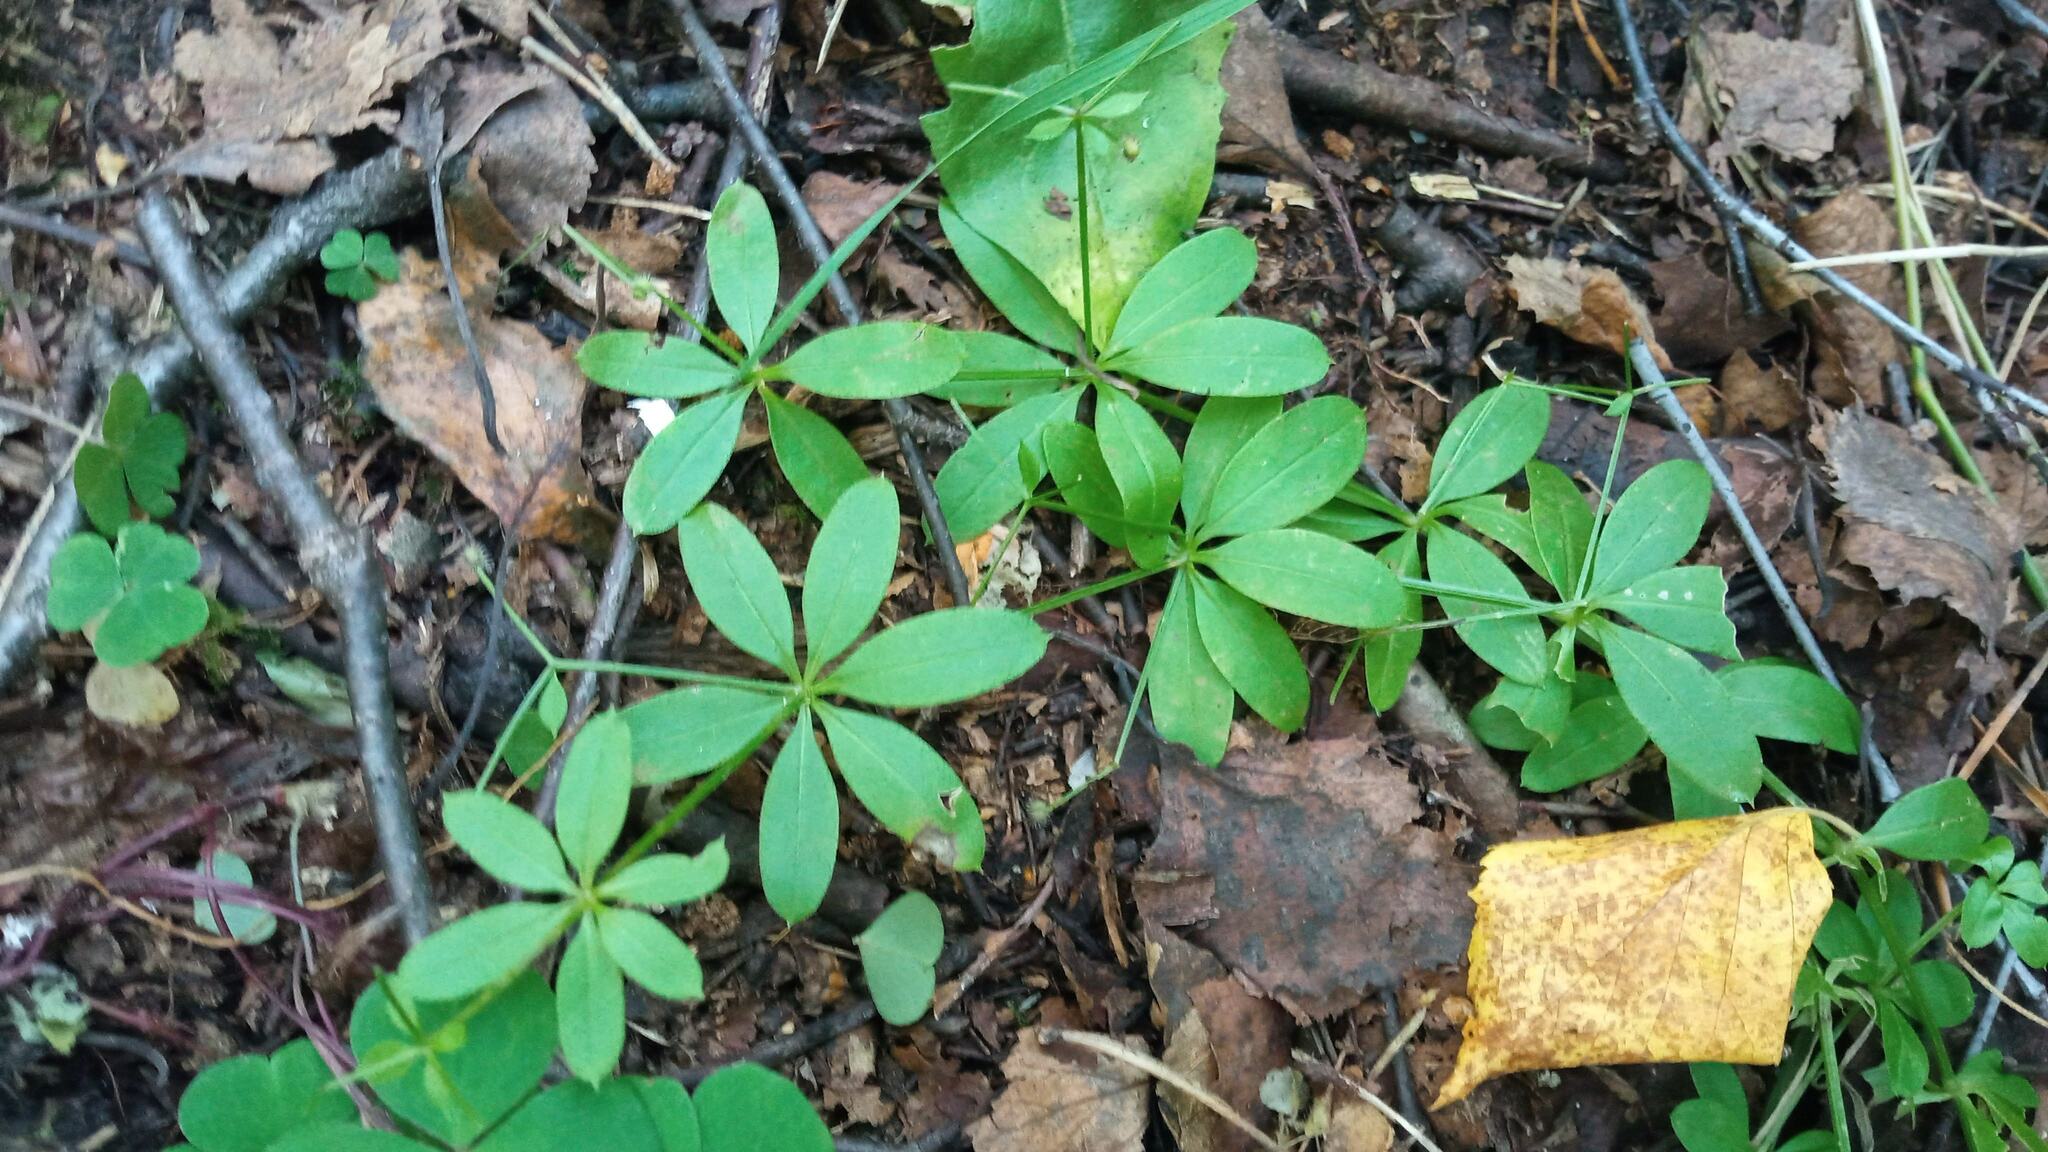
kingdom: Plantae
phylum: Tracheophyta
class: Magnoliopsida
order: Gentianales
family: Rubiaceae
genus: Galium
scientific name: Galium triflorum
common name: Fragrant bedstraw
